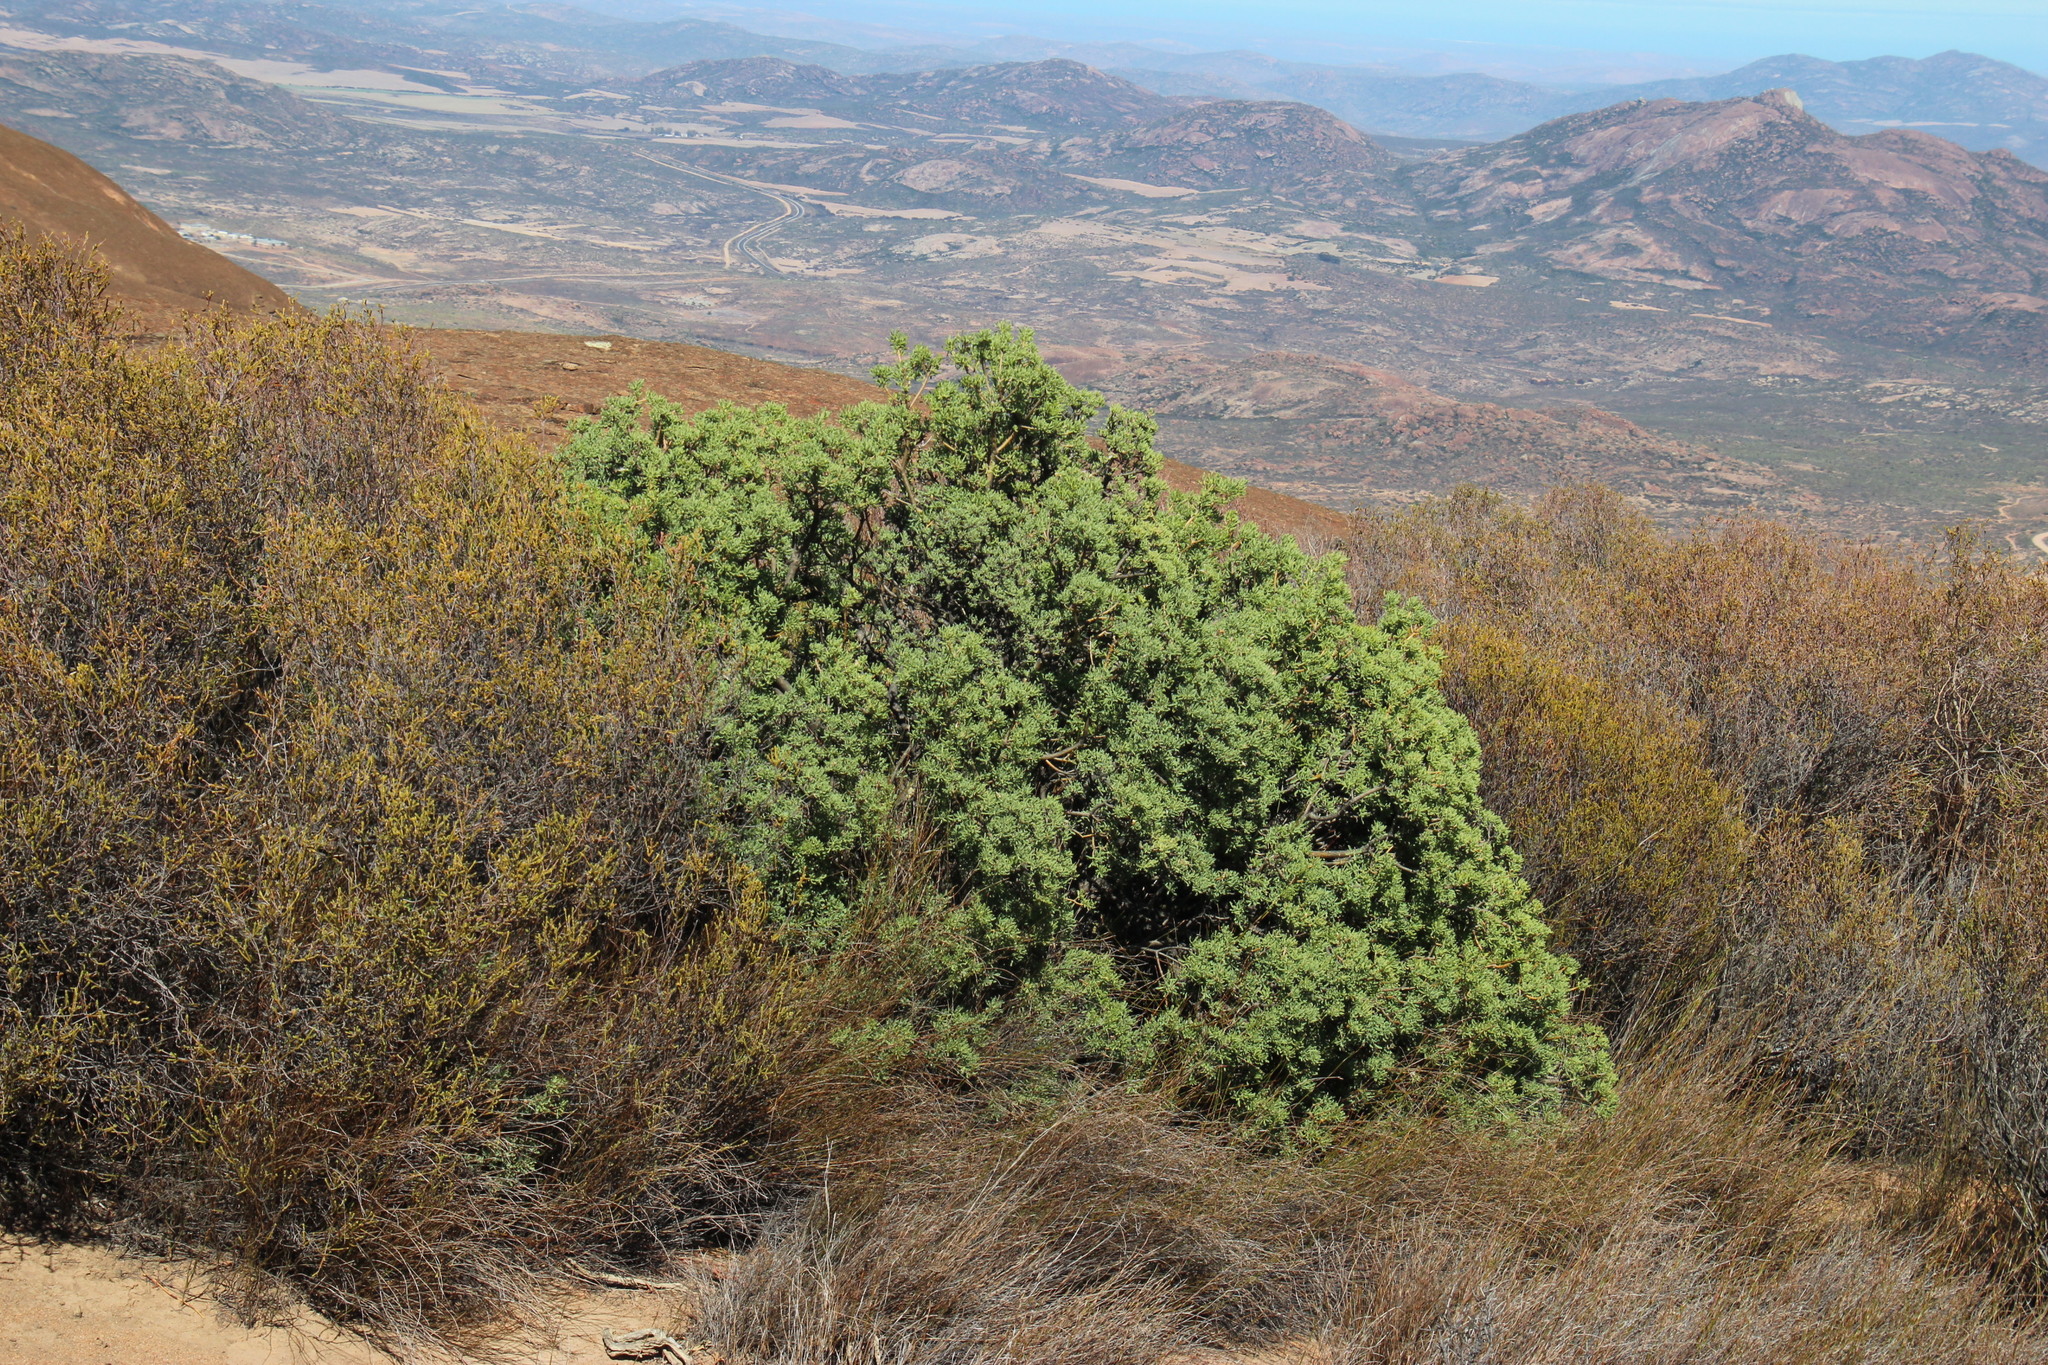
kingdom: Plantae
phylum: Tracheophyta
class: Magnoliopsida
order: Asterales
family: Asteraceae
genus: Othonna
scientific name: Othonna divaricata
